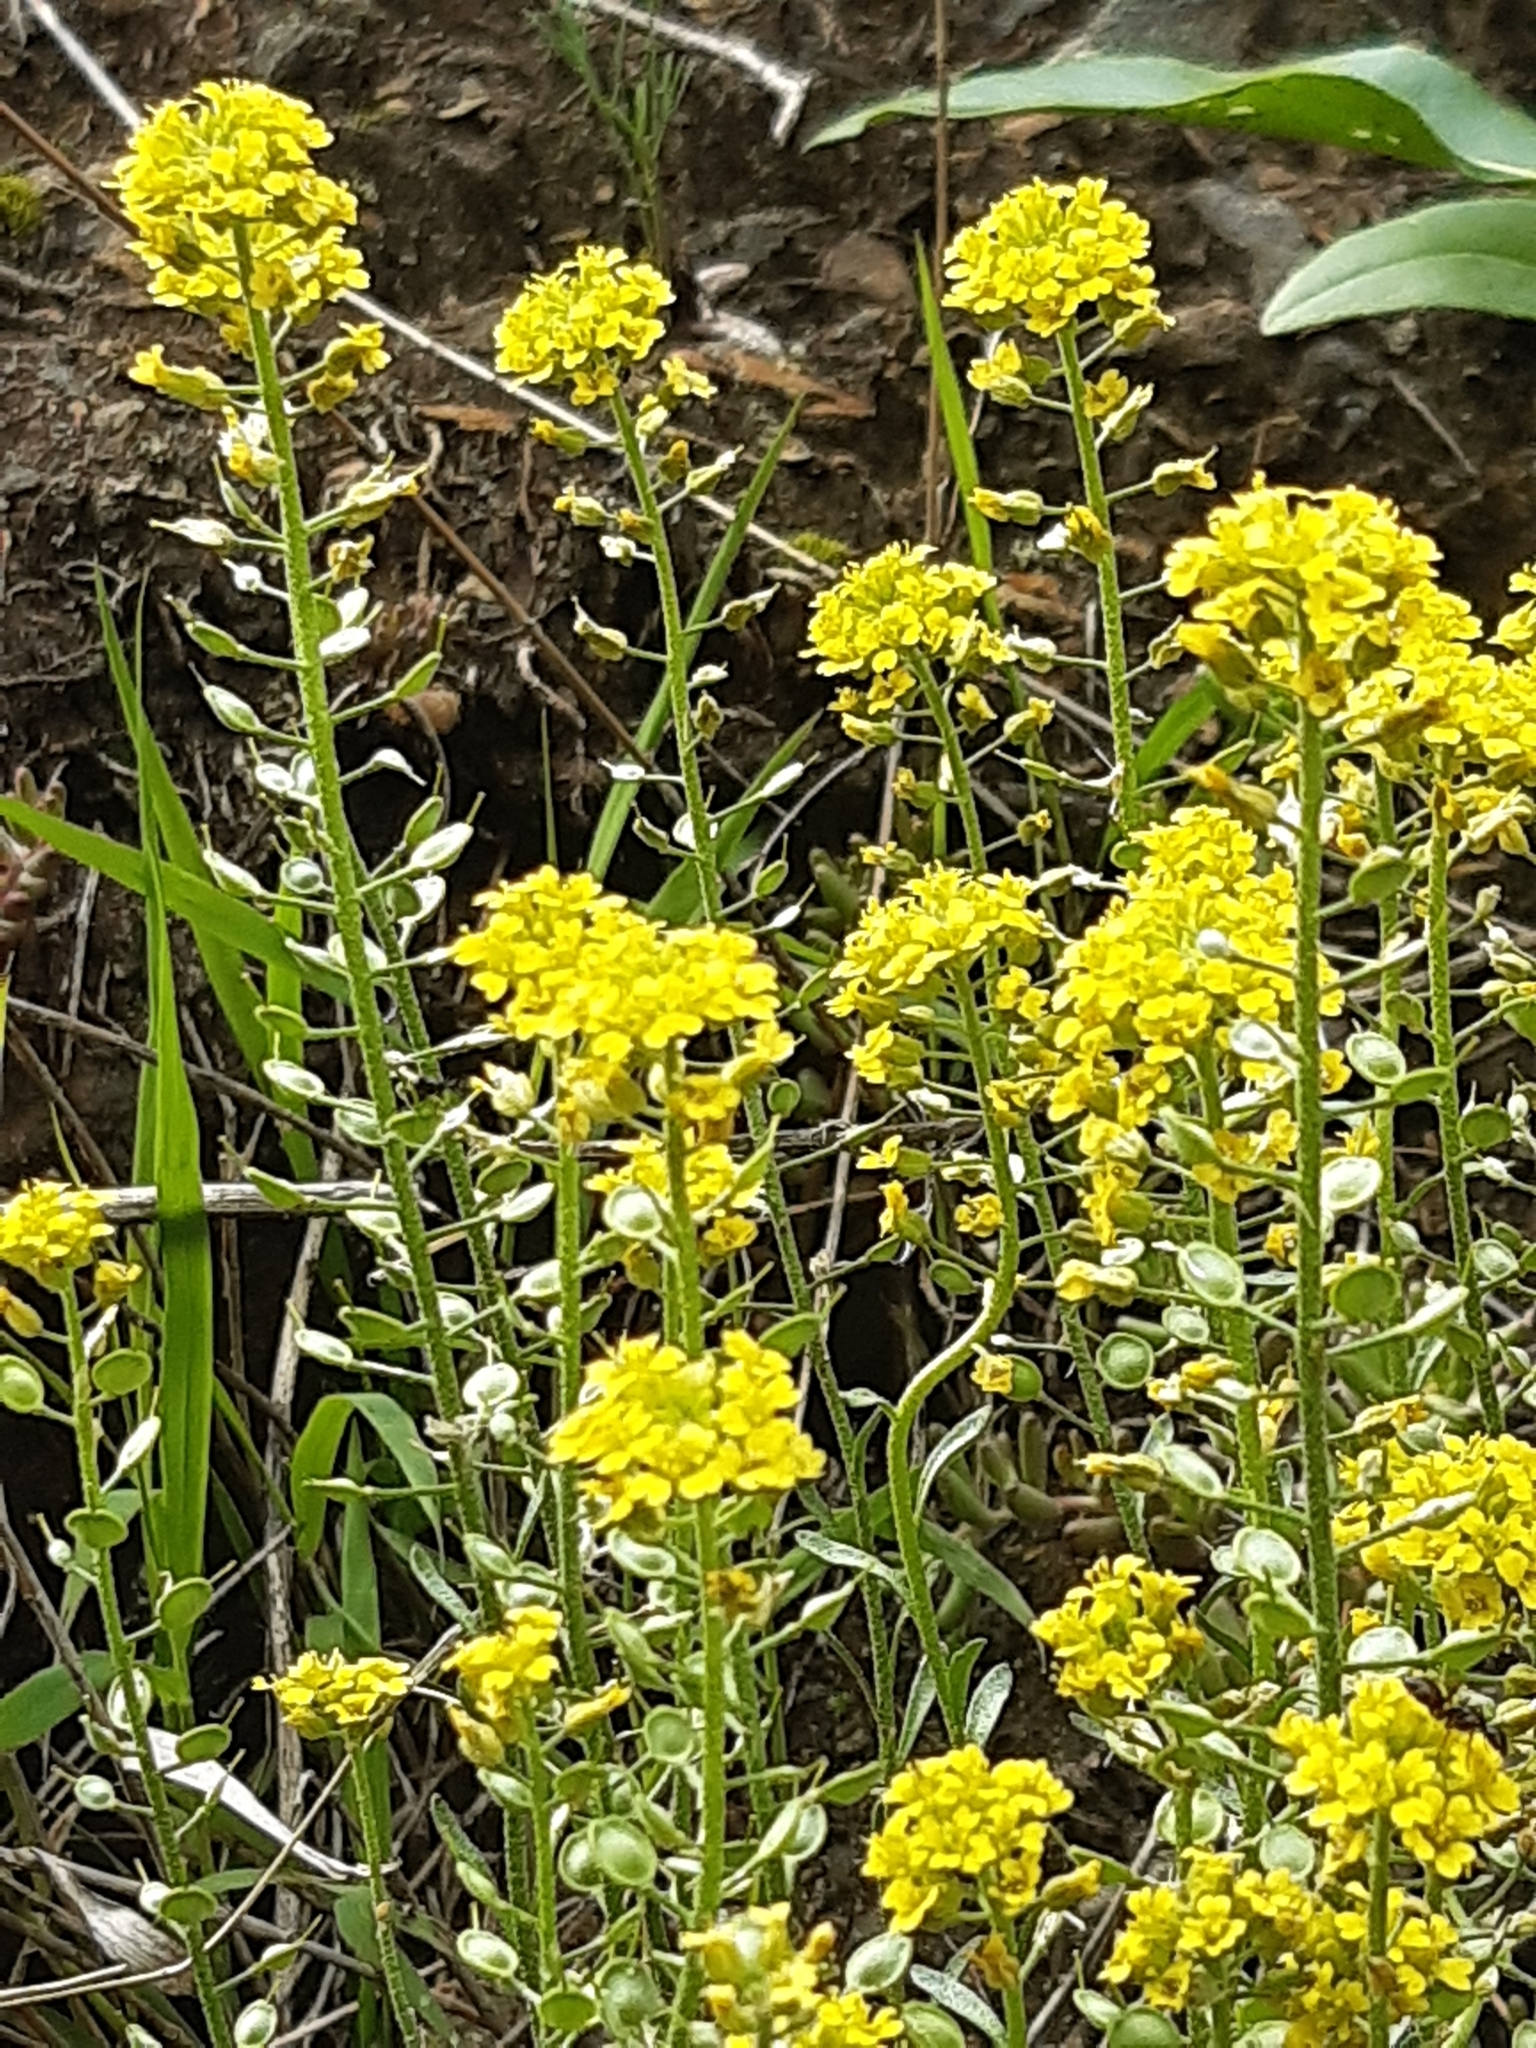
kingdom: Plantae
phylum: Tracheophyta
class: Magnoliopsida
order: Brassicales
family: Brassicaceae
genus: Alyssum
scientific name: Alyssum gmelinii
